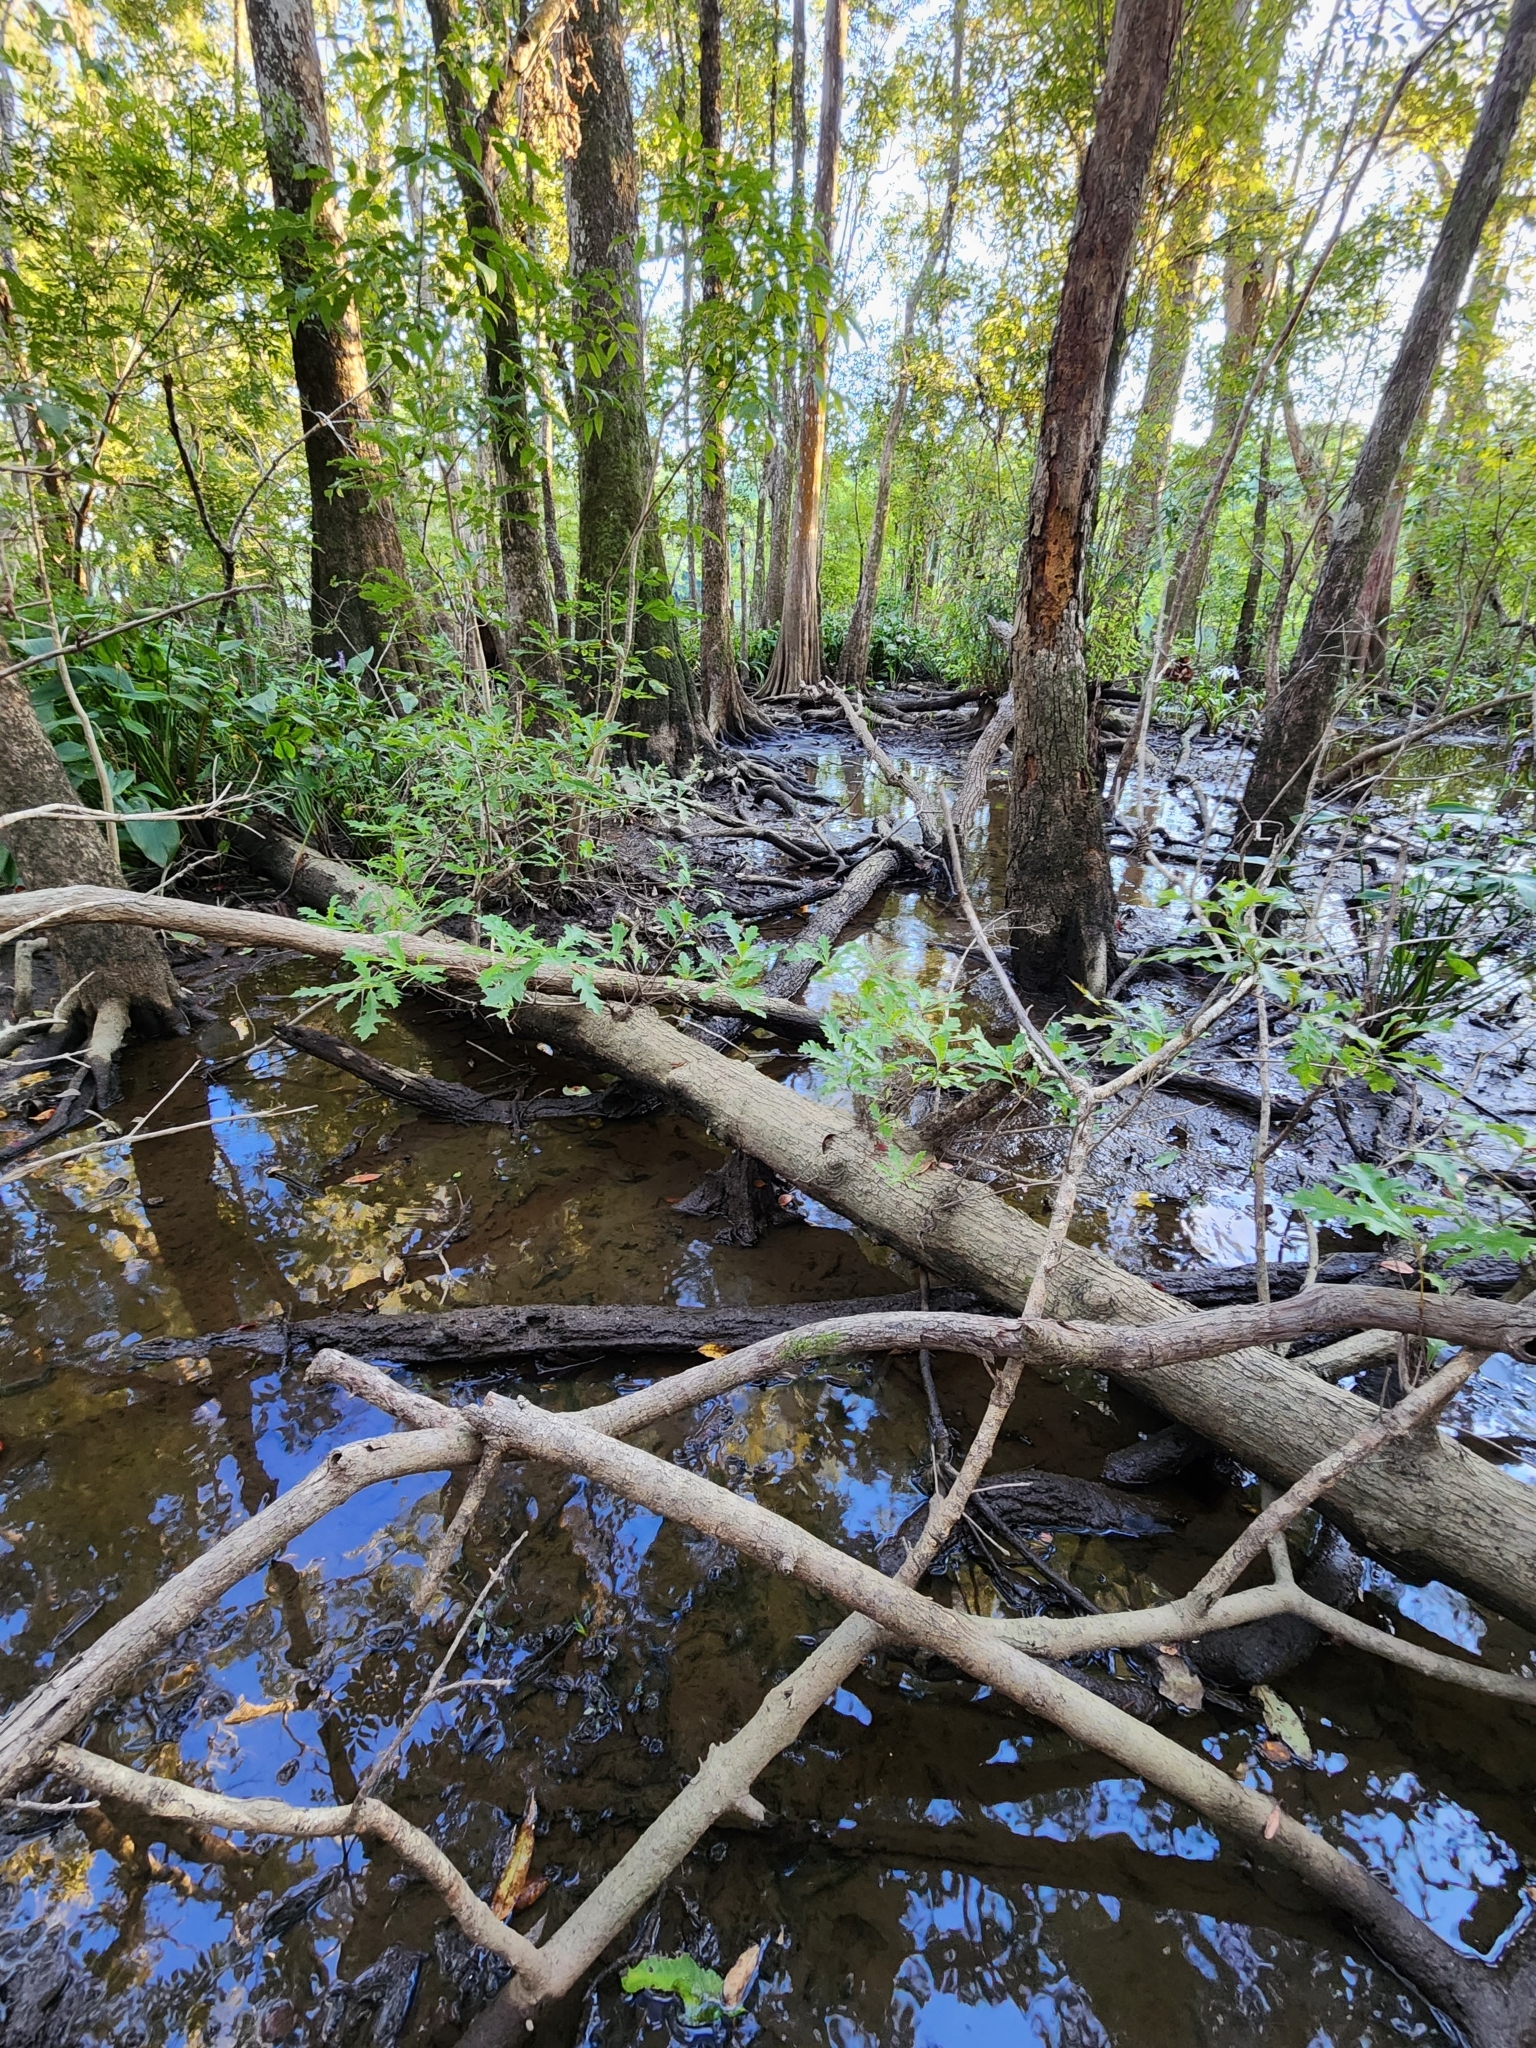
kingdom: Plantae
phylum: Tracheophyta
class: Magnoliopsida
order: Fagales
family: Fagaceae
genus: Quercus
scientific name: Quercus lyrata
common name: Overcup oak
